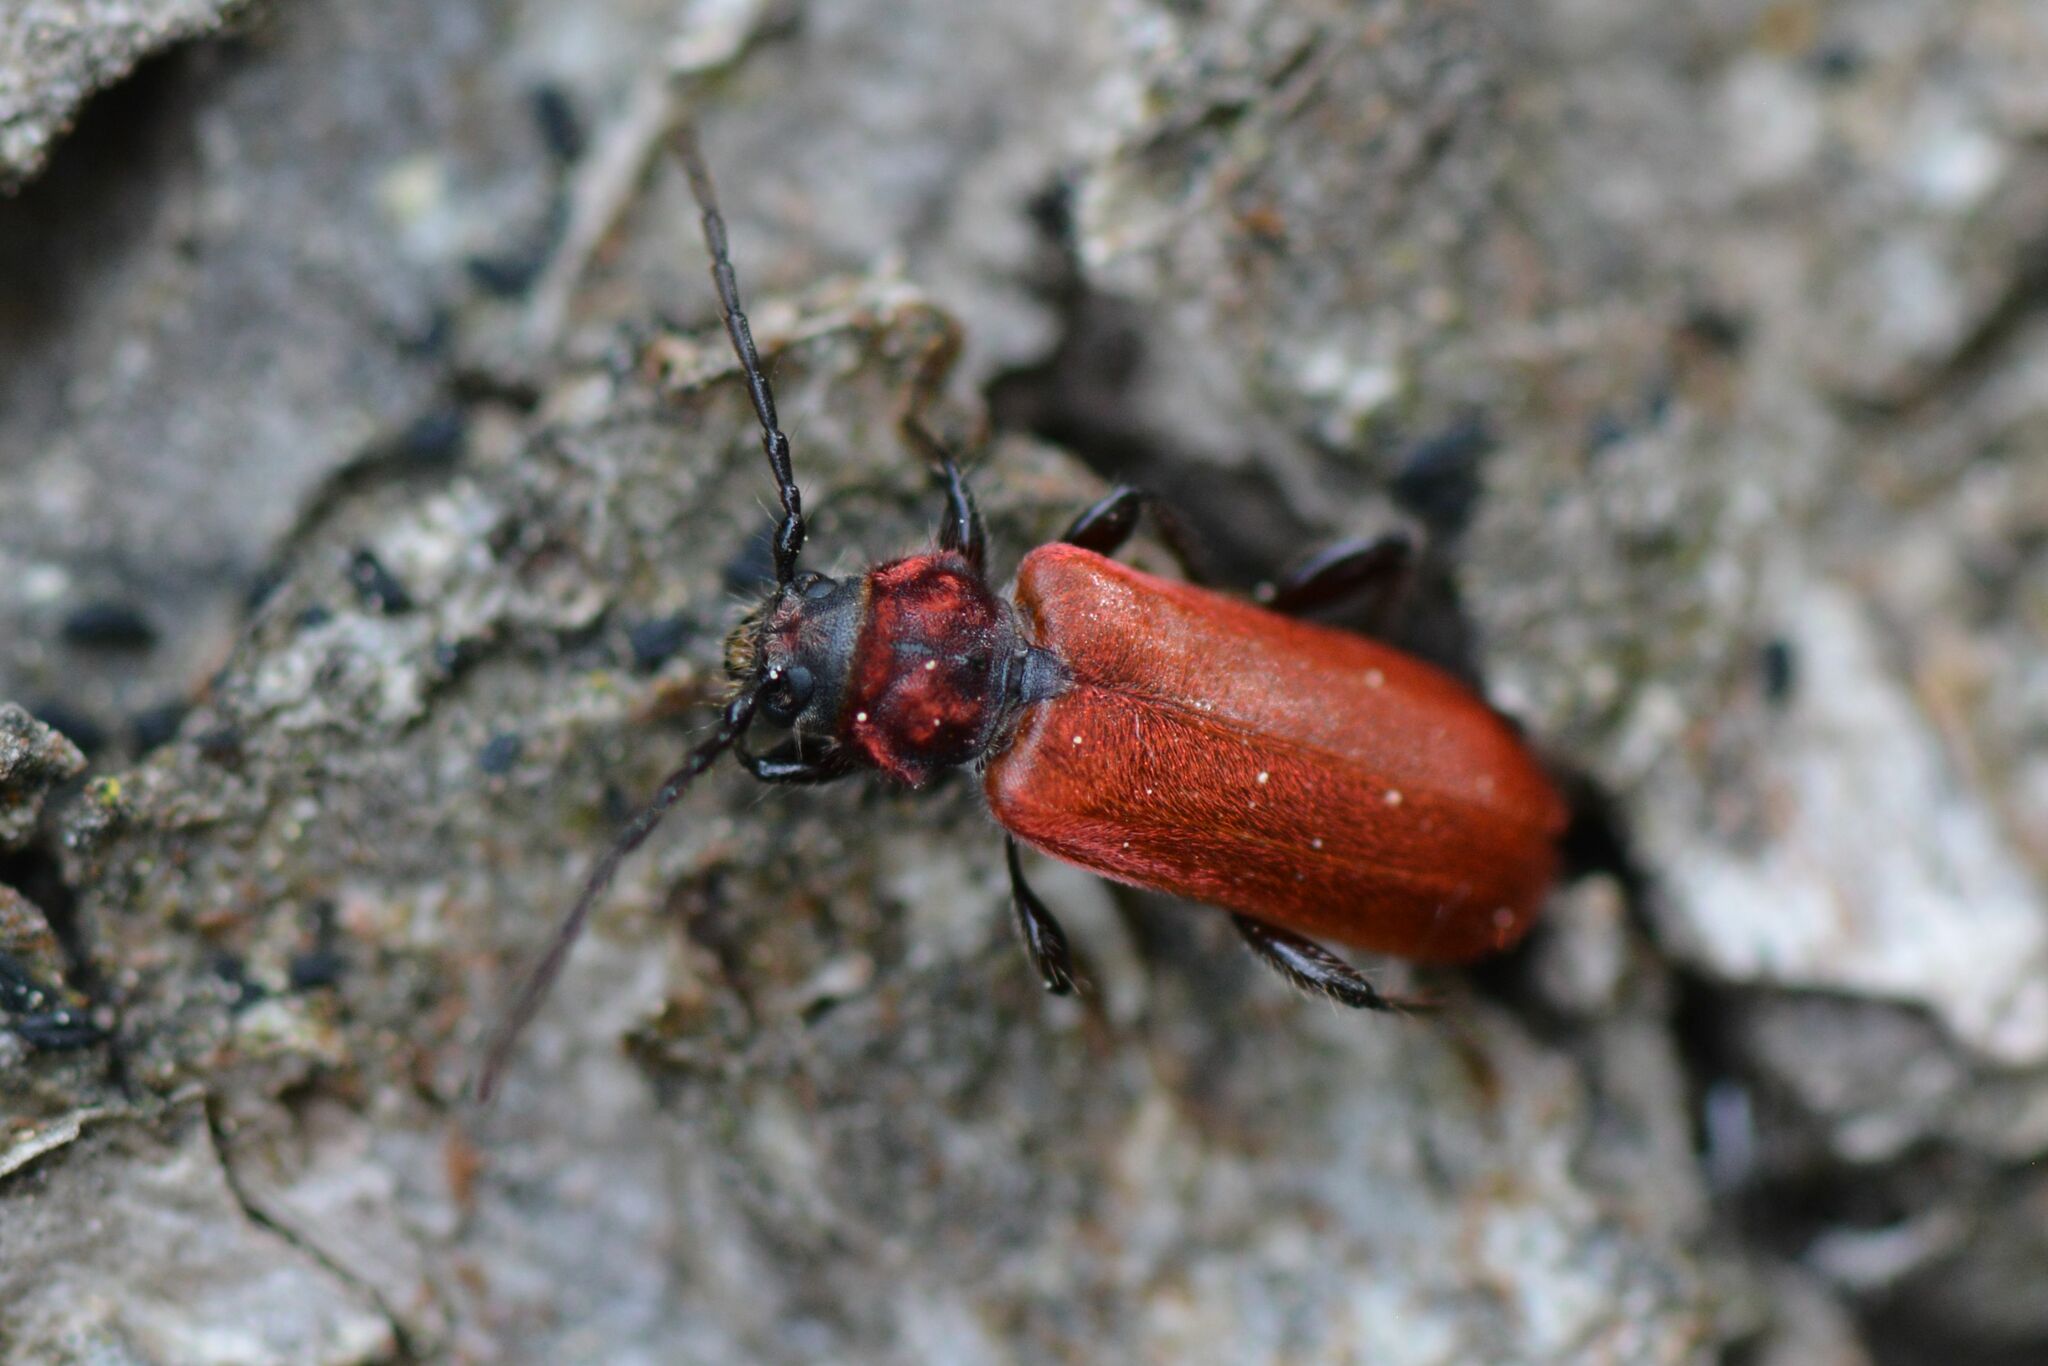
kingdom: Animalia
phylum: Arthropoda
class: Insecta
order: Coleoptera
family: Cerambycidae
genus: Pyrrhidium
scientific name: Pyrrhidium sanguineum
